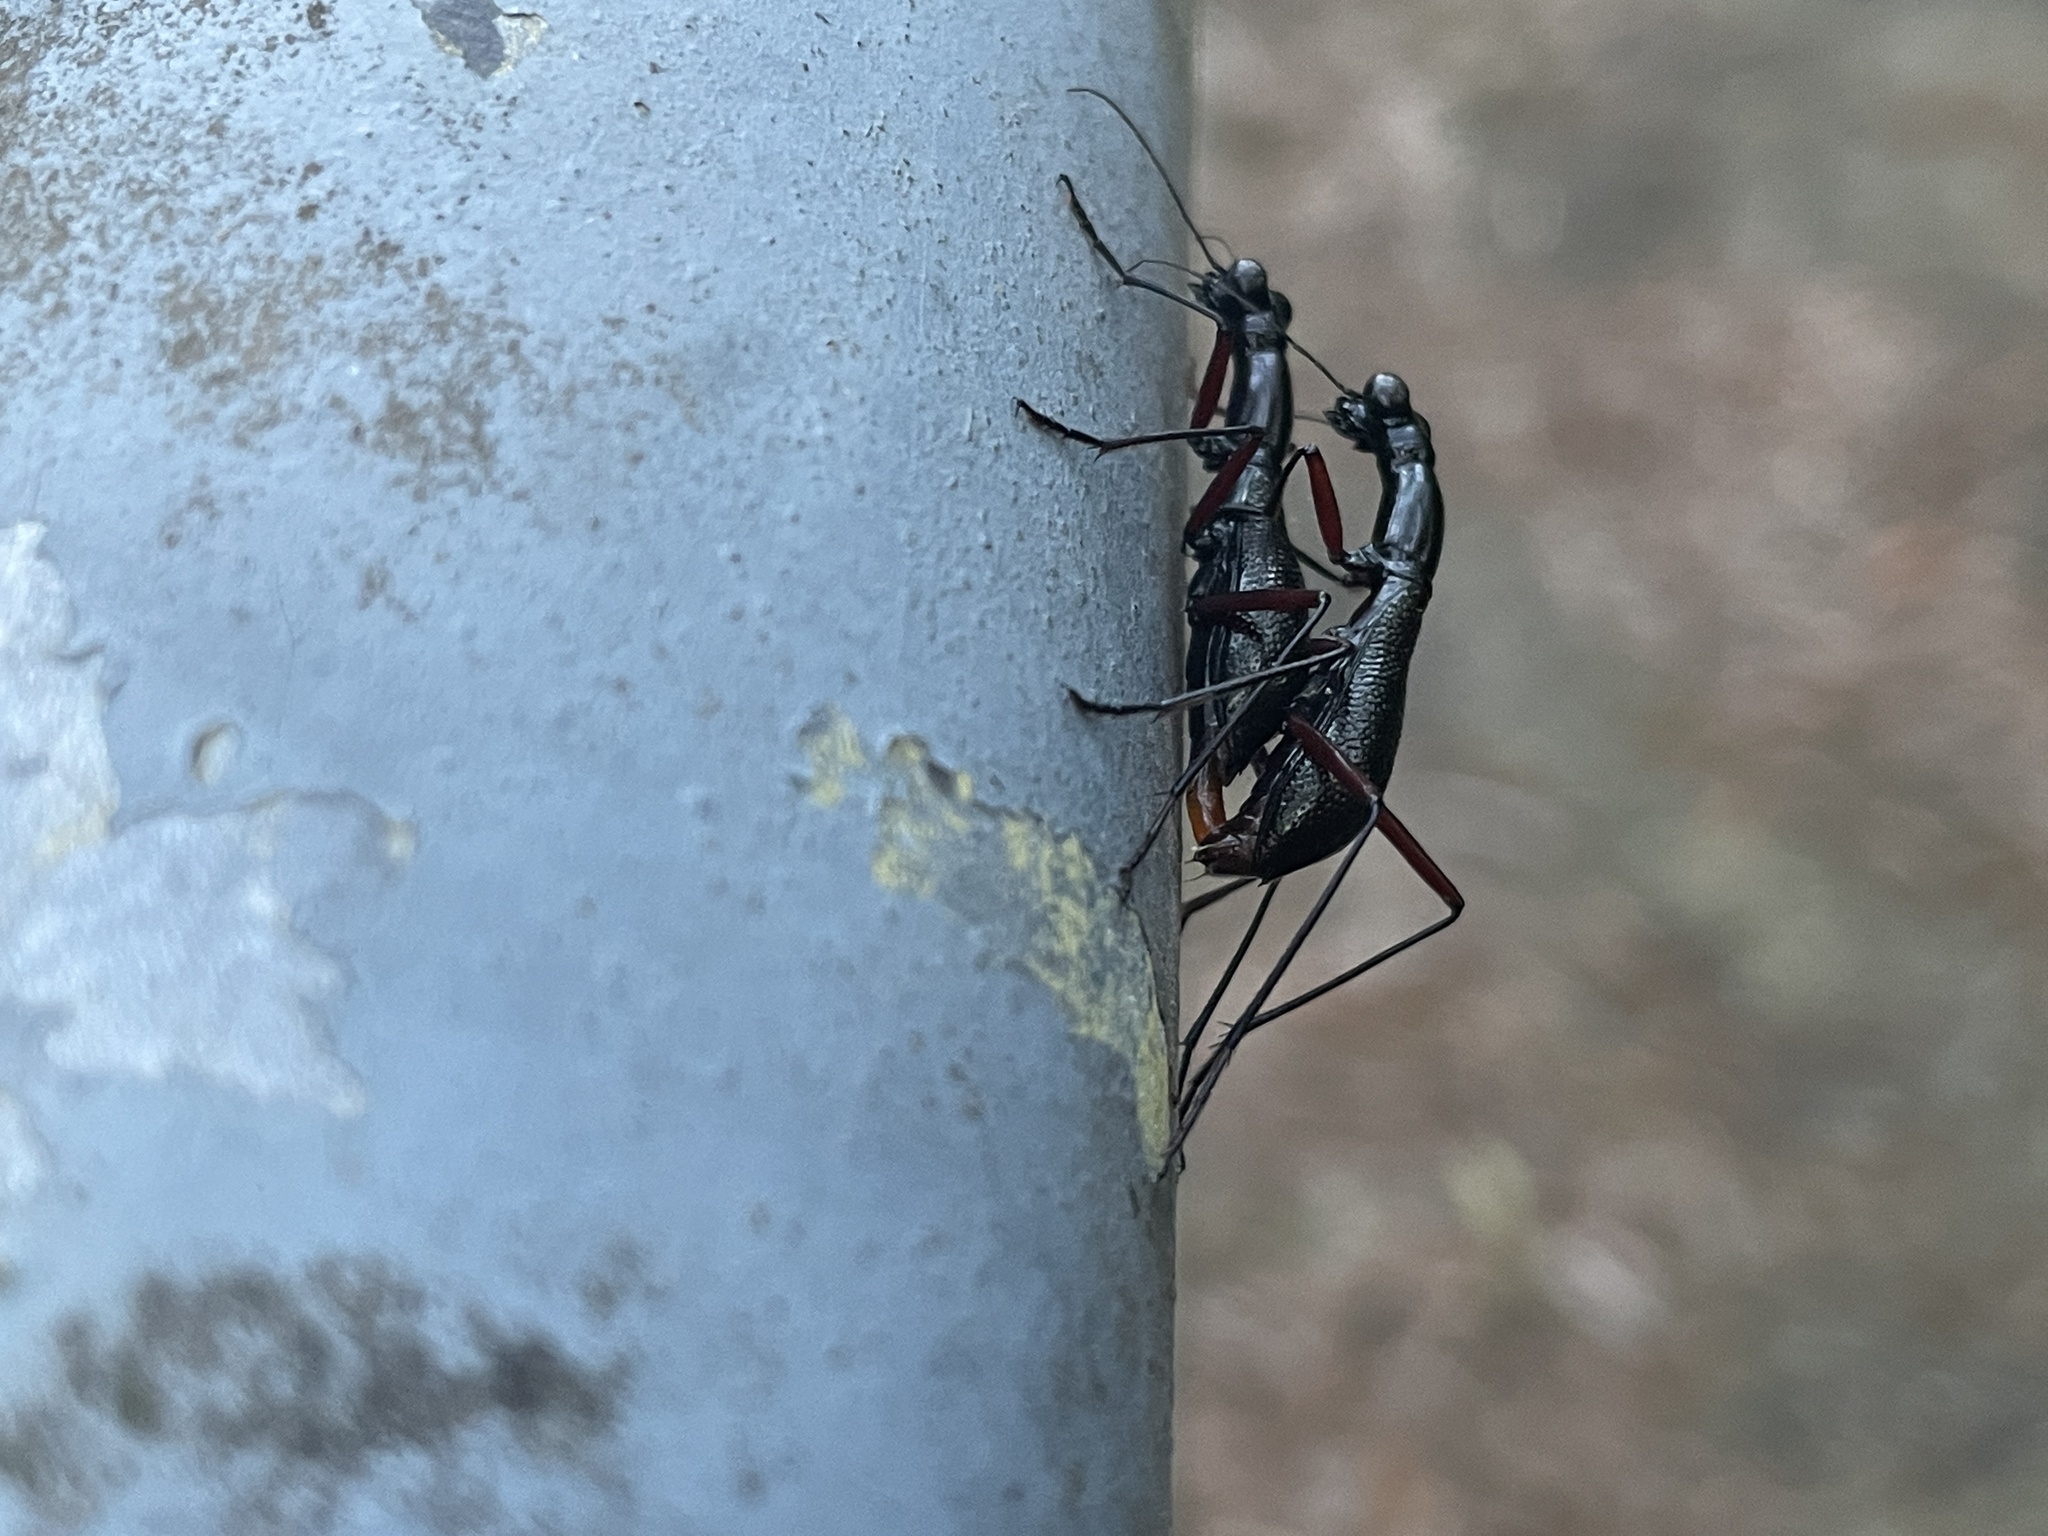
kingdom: Animalia
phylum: Arthropoda
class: Insecta
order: Coleoptera
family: Carabidae
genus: Tricondyla
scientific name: Tricondyla pulchripes
